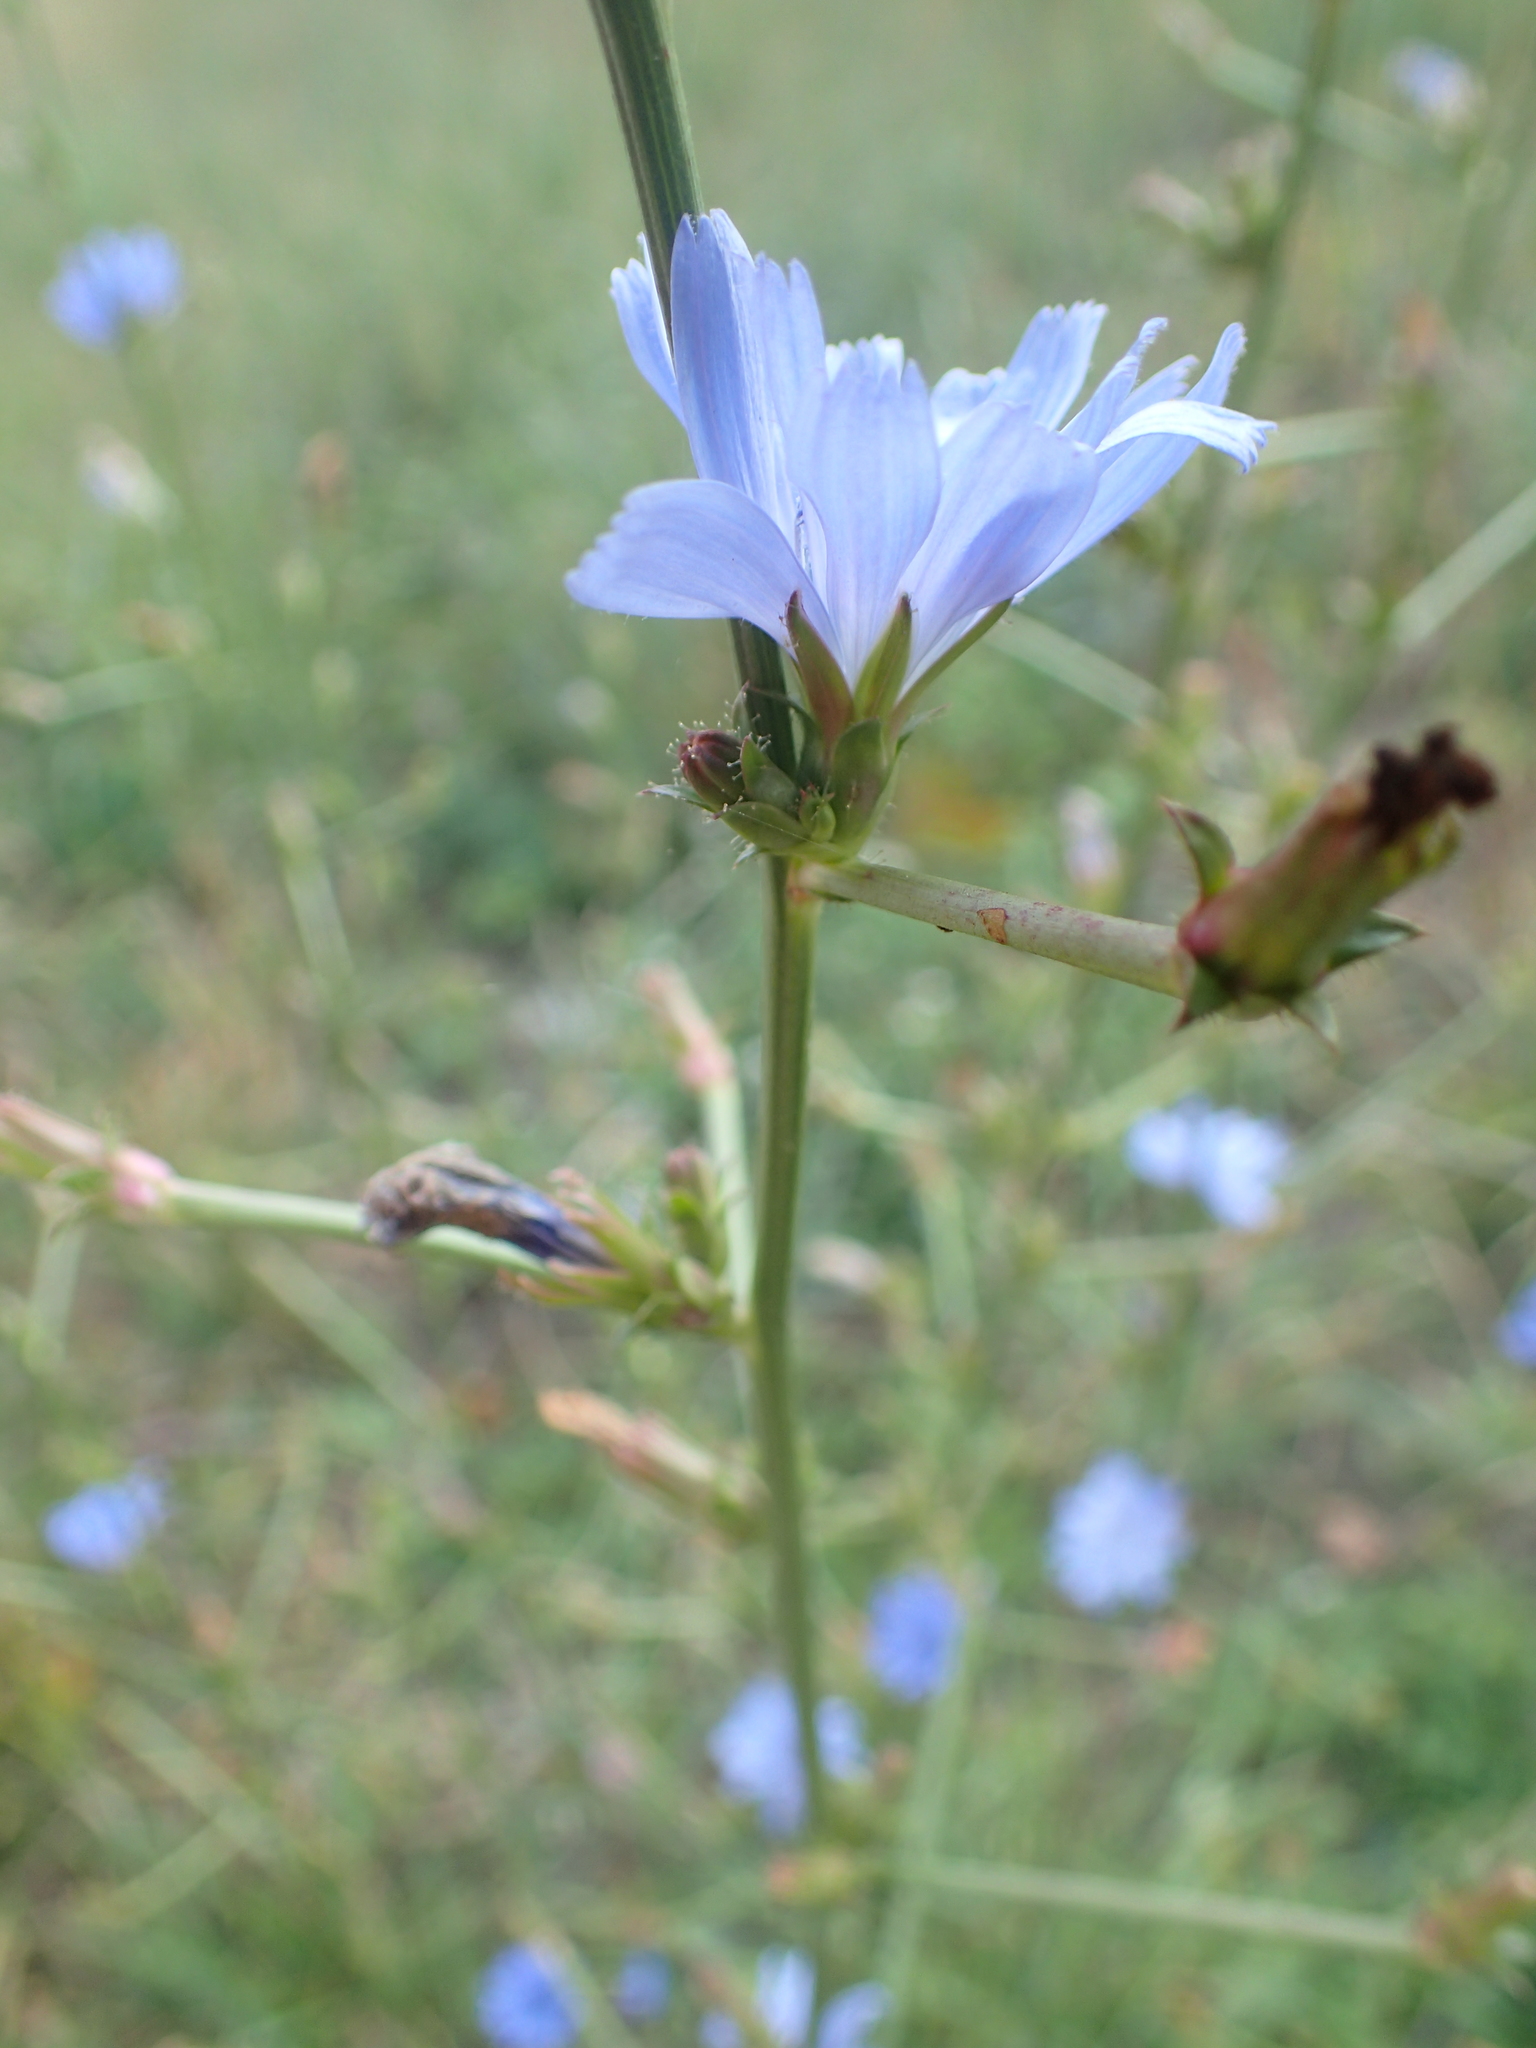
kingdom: Plantae
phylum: Tracheophyta
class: Magnoliopsida
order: Asterales
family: Asteraceae
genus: Cichorium
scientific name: Cichorium intybus
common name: Chicory
